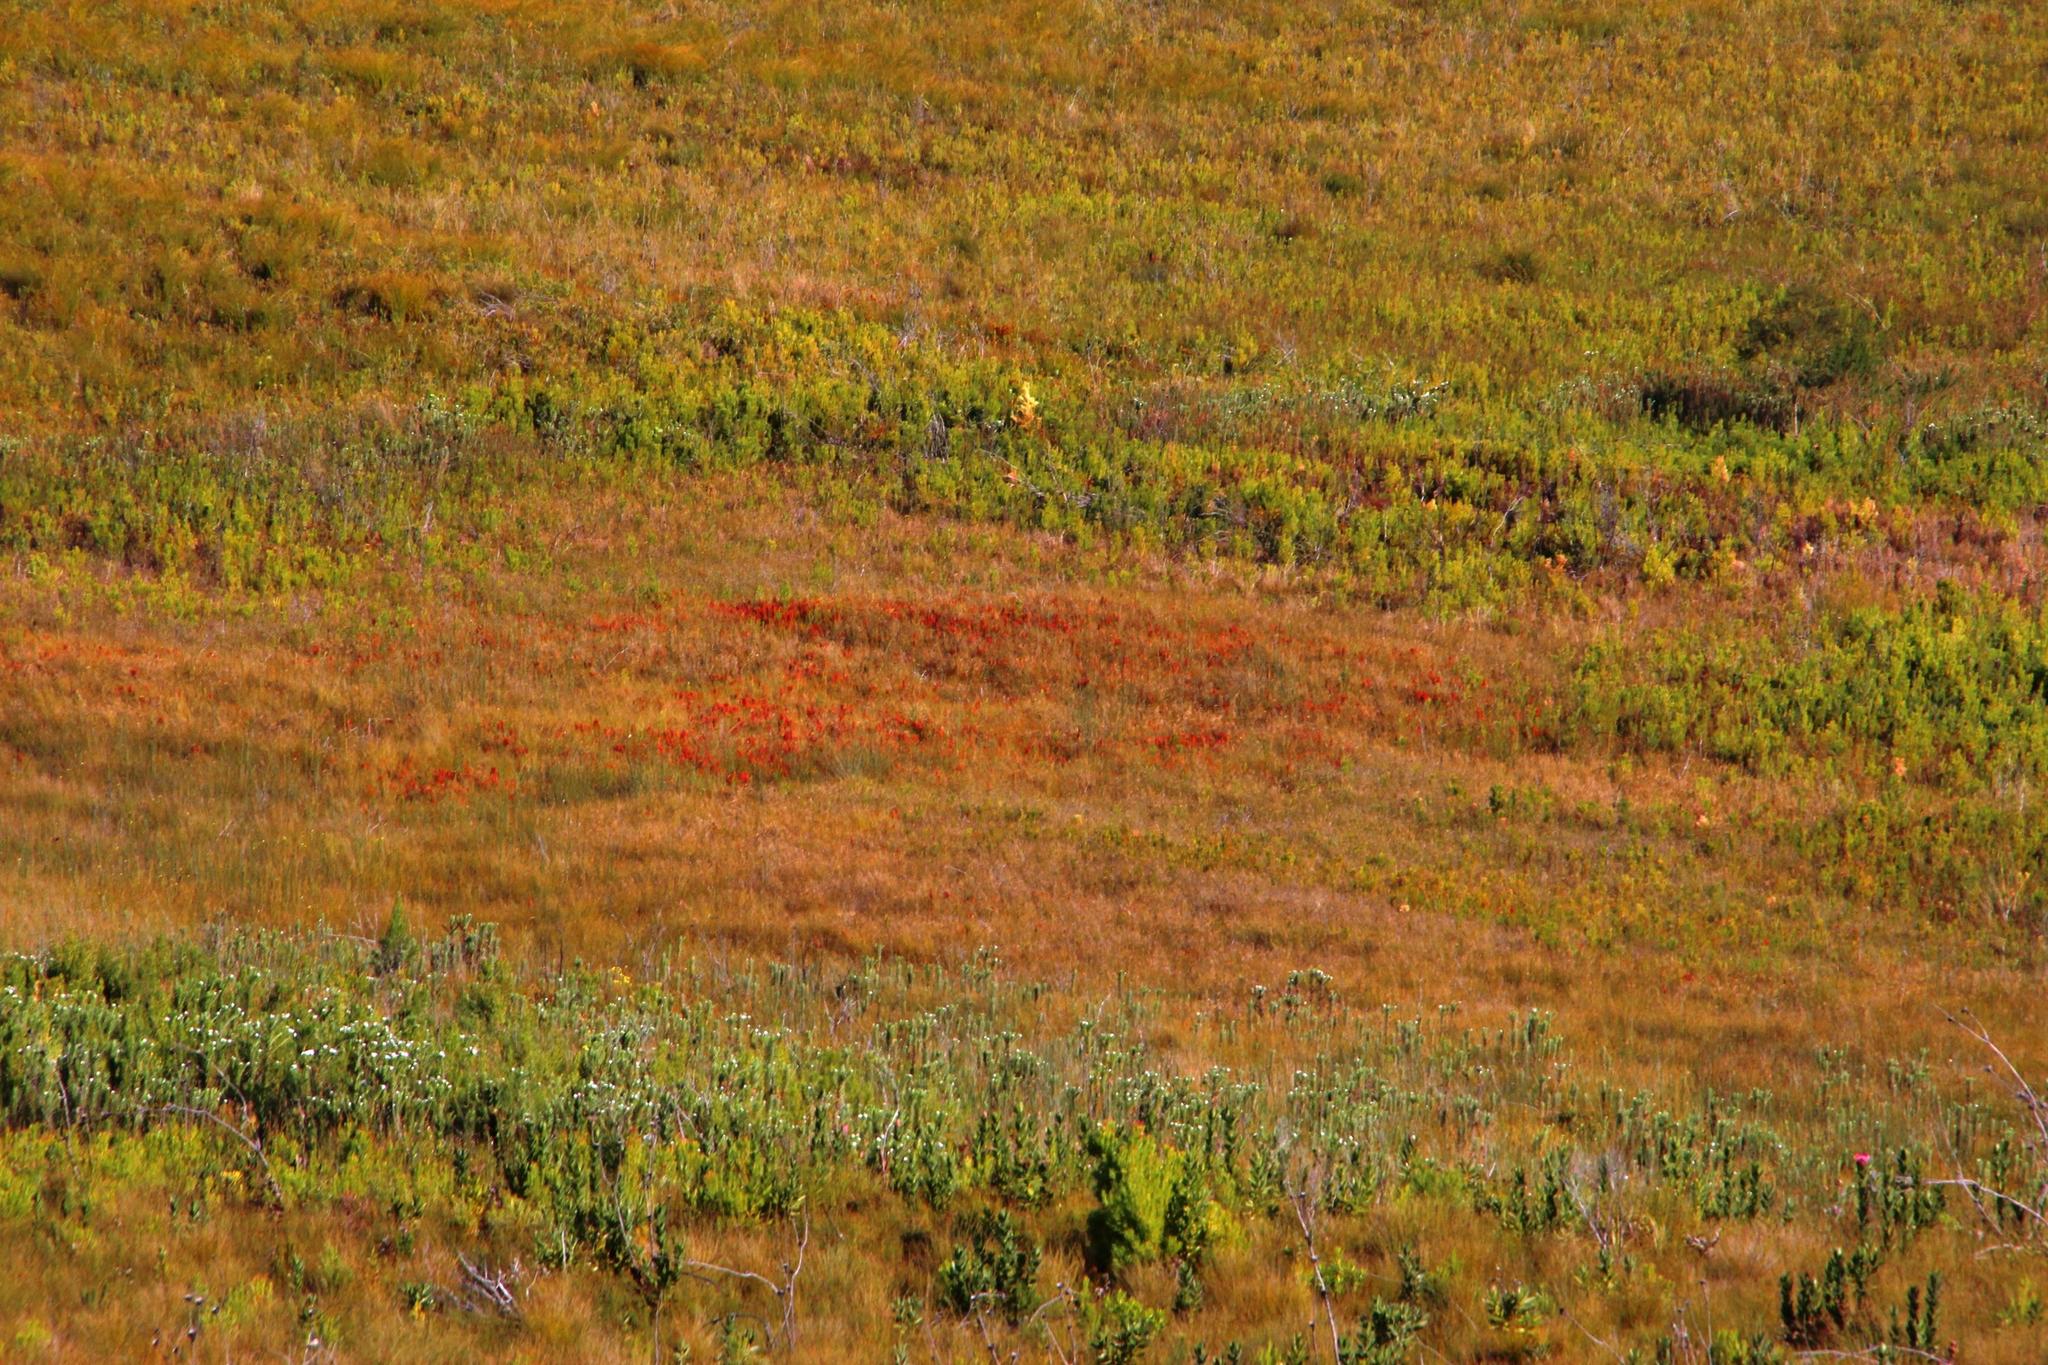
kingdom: Plantae
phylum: Tracheophyta
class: Magnoliopsida
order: Ericales
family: Ericaceae
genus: Erica
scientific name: Erica pillansii
